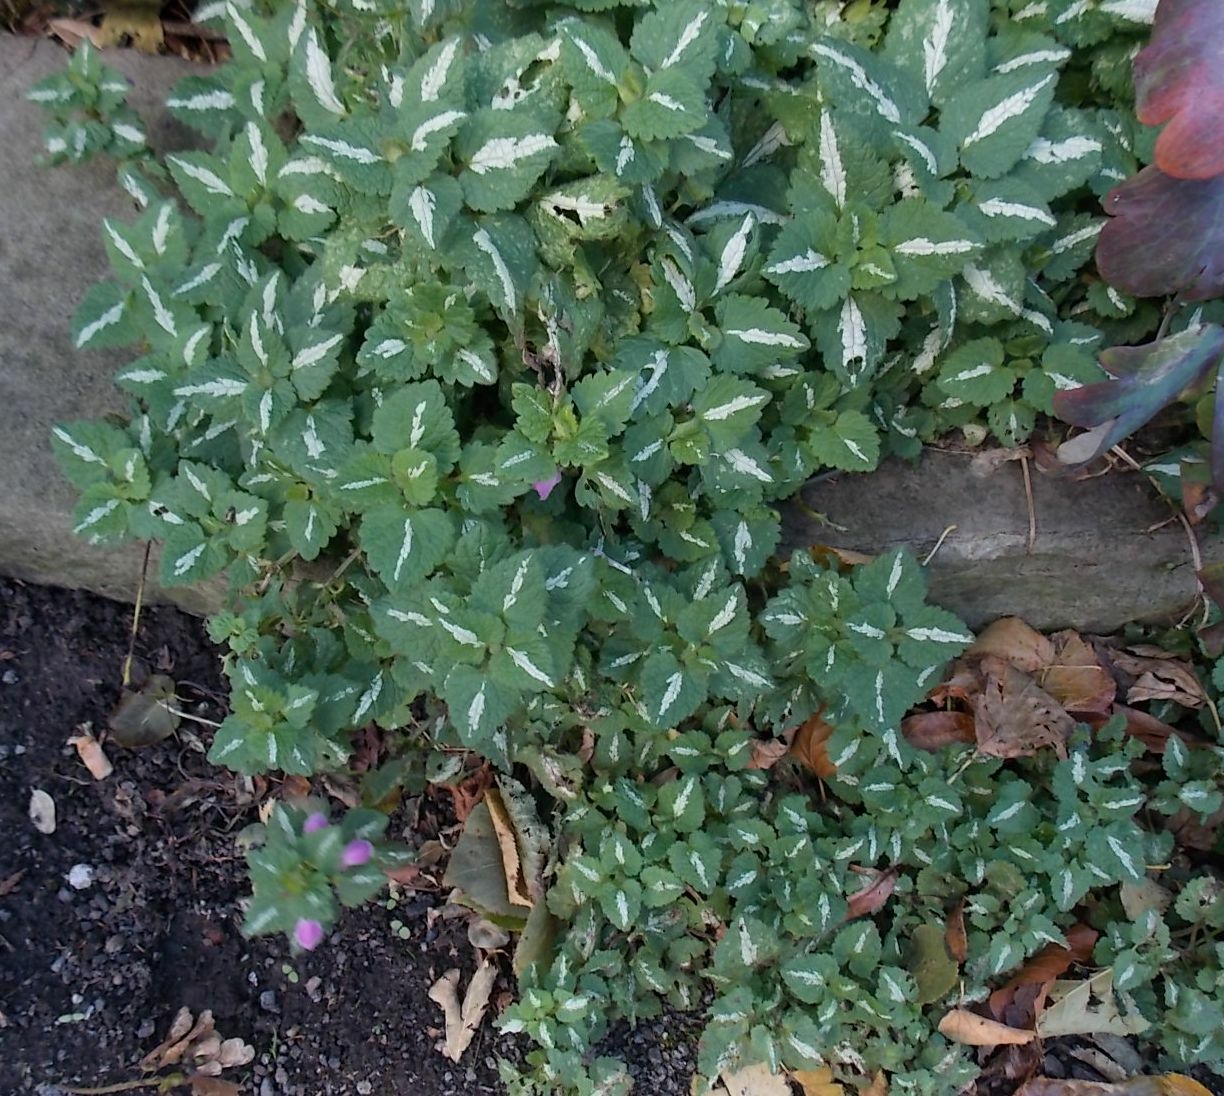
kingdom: Plantae
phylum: Tracheophyta
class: Magnoliopsida
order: Lamiales
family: Lamiaceae
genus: Lamium
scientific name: Lamium maculatum
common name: Spotted dead-nettle
